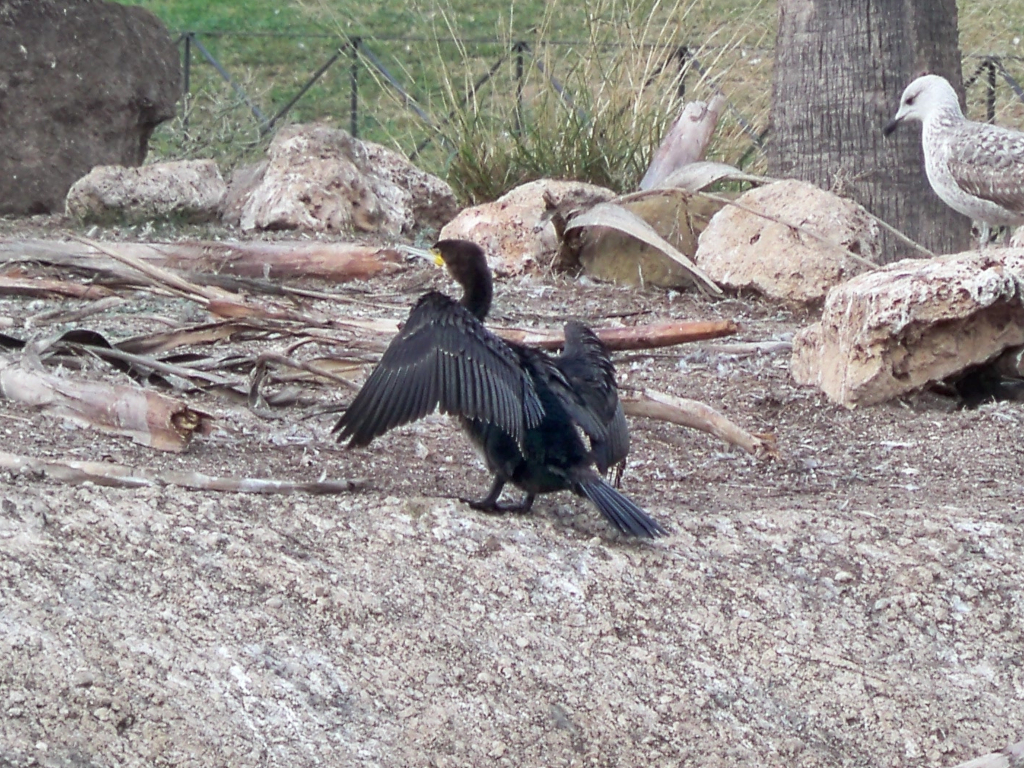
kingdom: Animalia
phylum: Chordata
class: Aves
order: Suliformes
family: Phalacrocoracidae
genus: Phalacrocorax
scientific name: Phalacrocorax carbo
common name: Great cormorant
